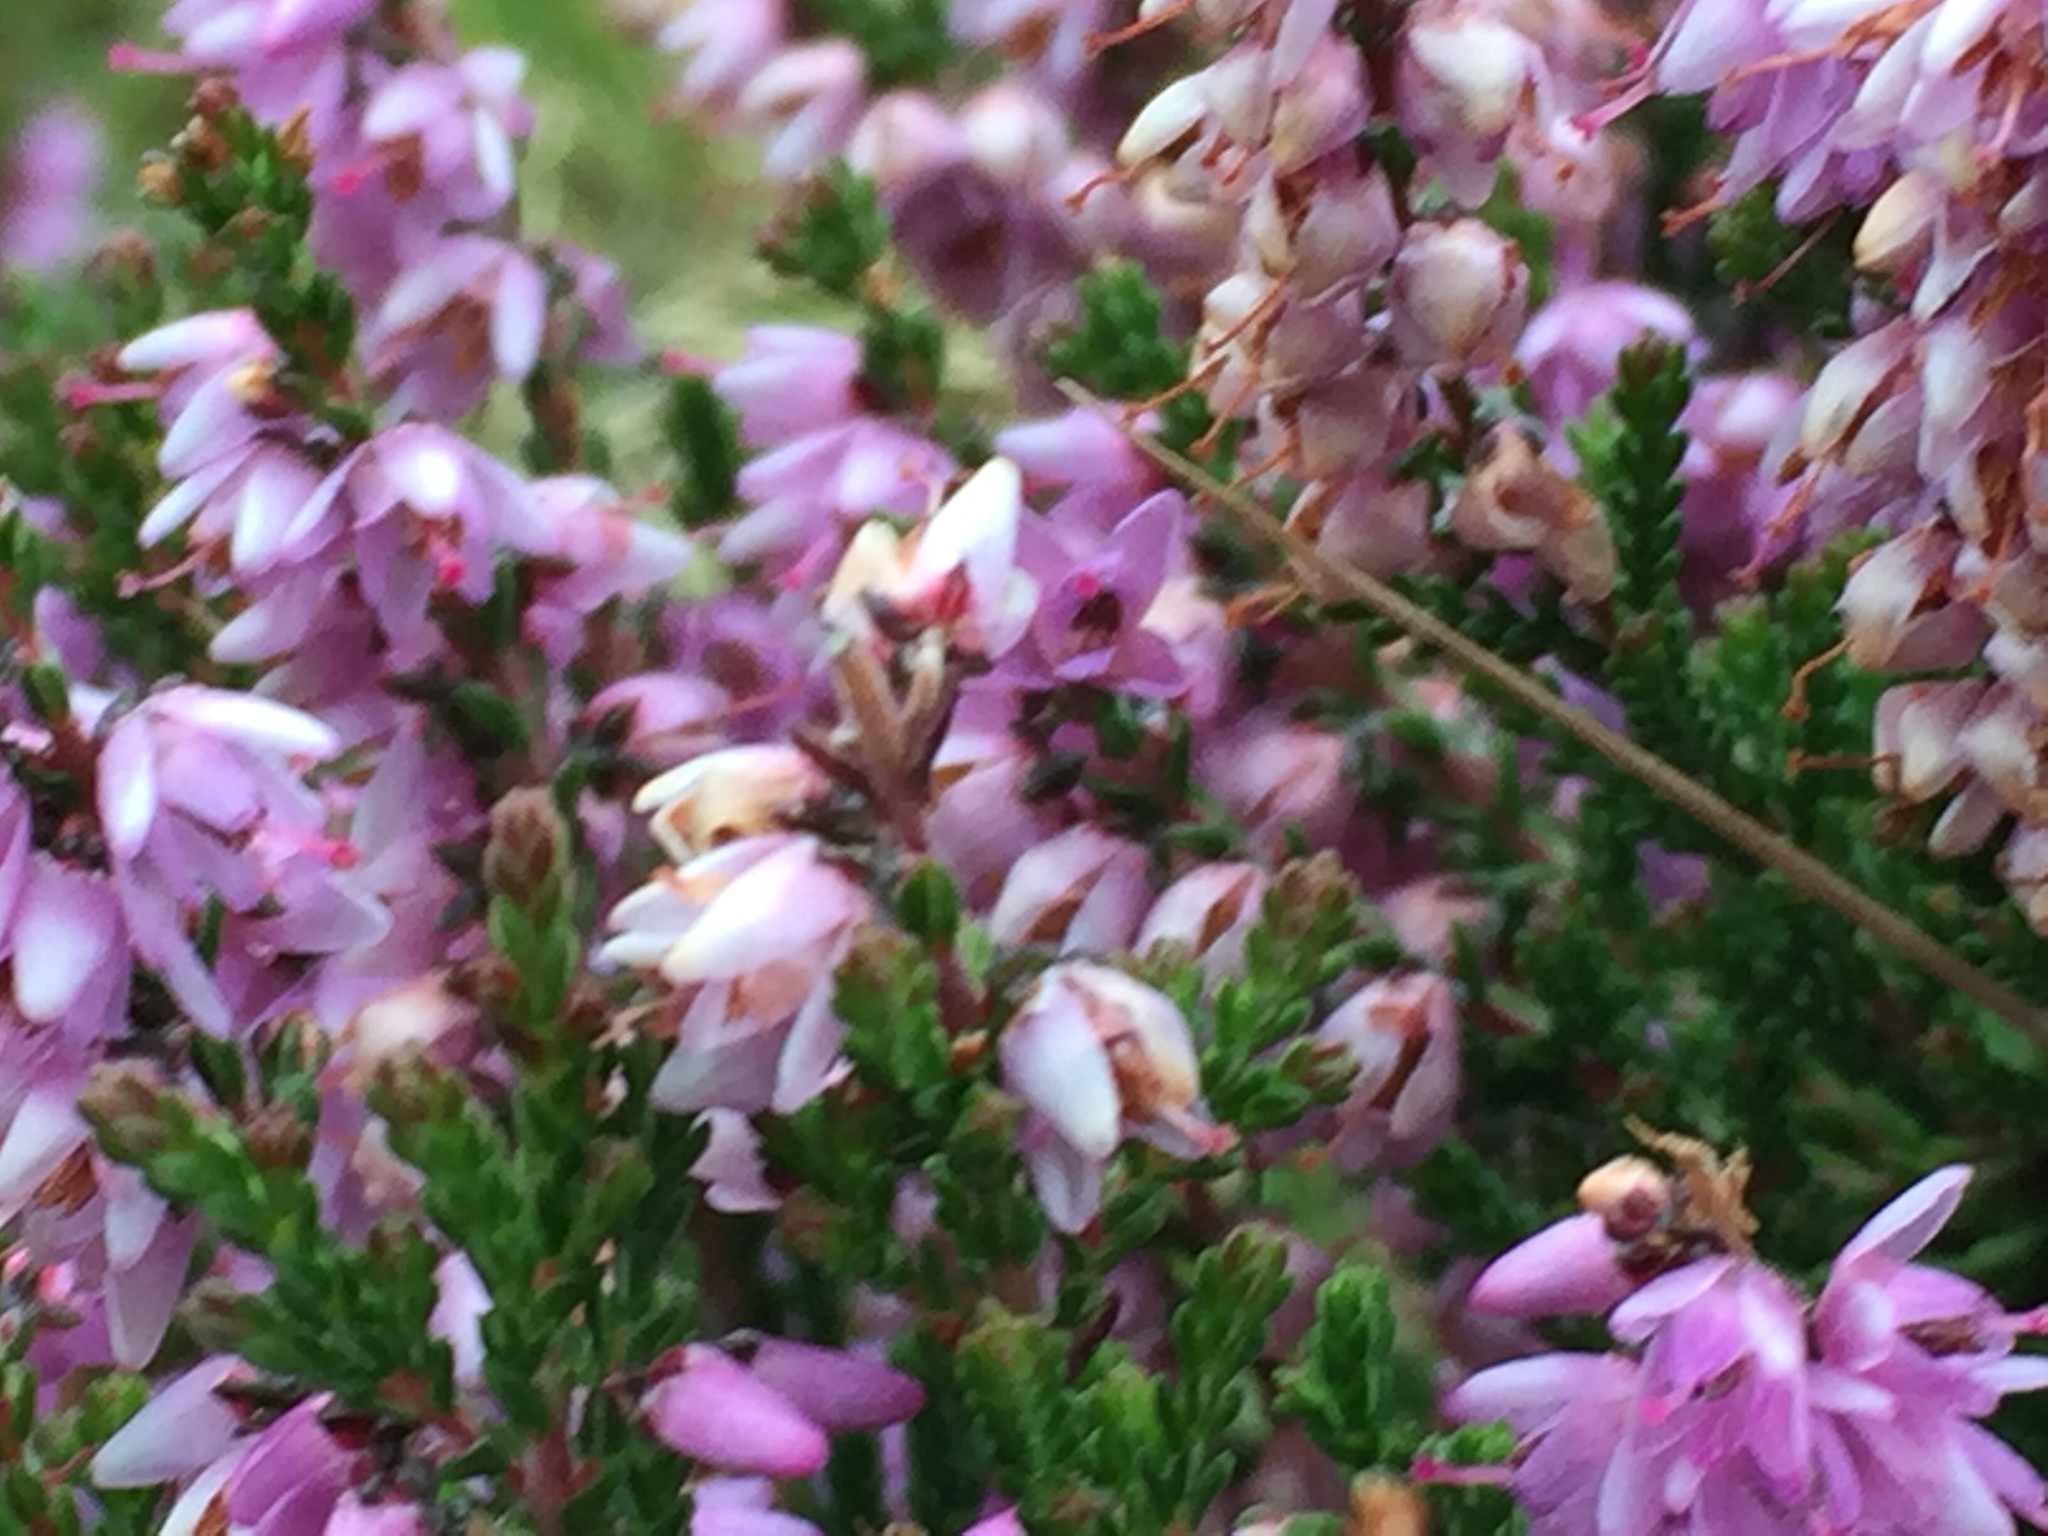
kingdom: Plantae
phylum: Tracheophyta
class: Magnoliopsida
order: Ericales
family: Ericaceae
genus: Calluna
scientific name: Calluna vulgaris
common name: Heather
